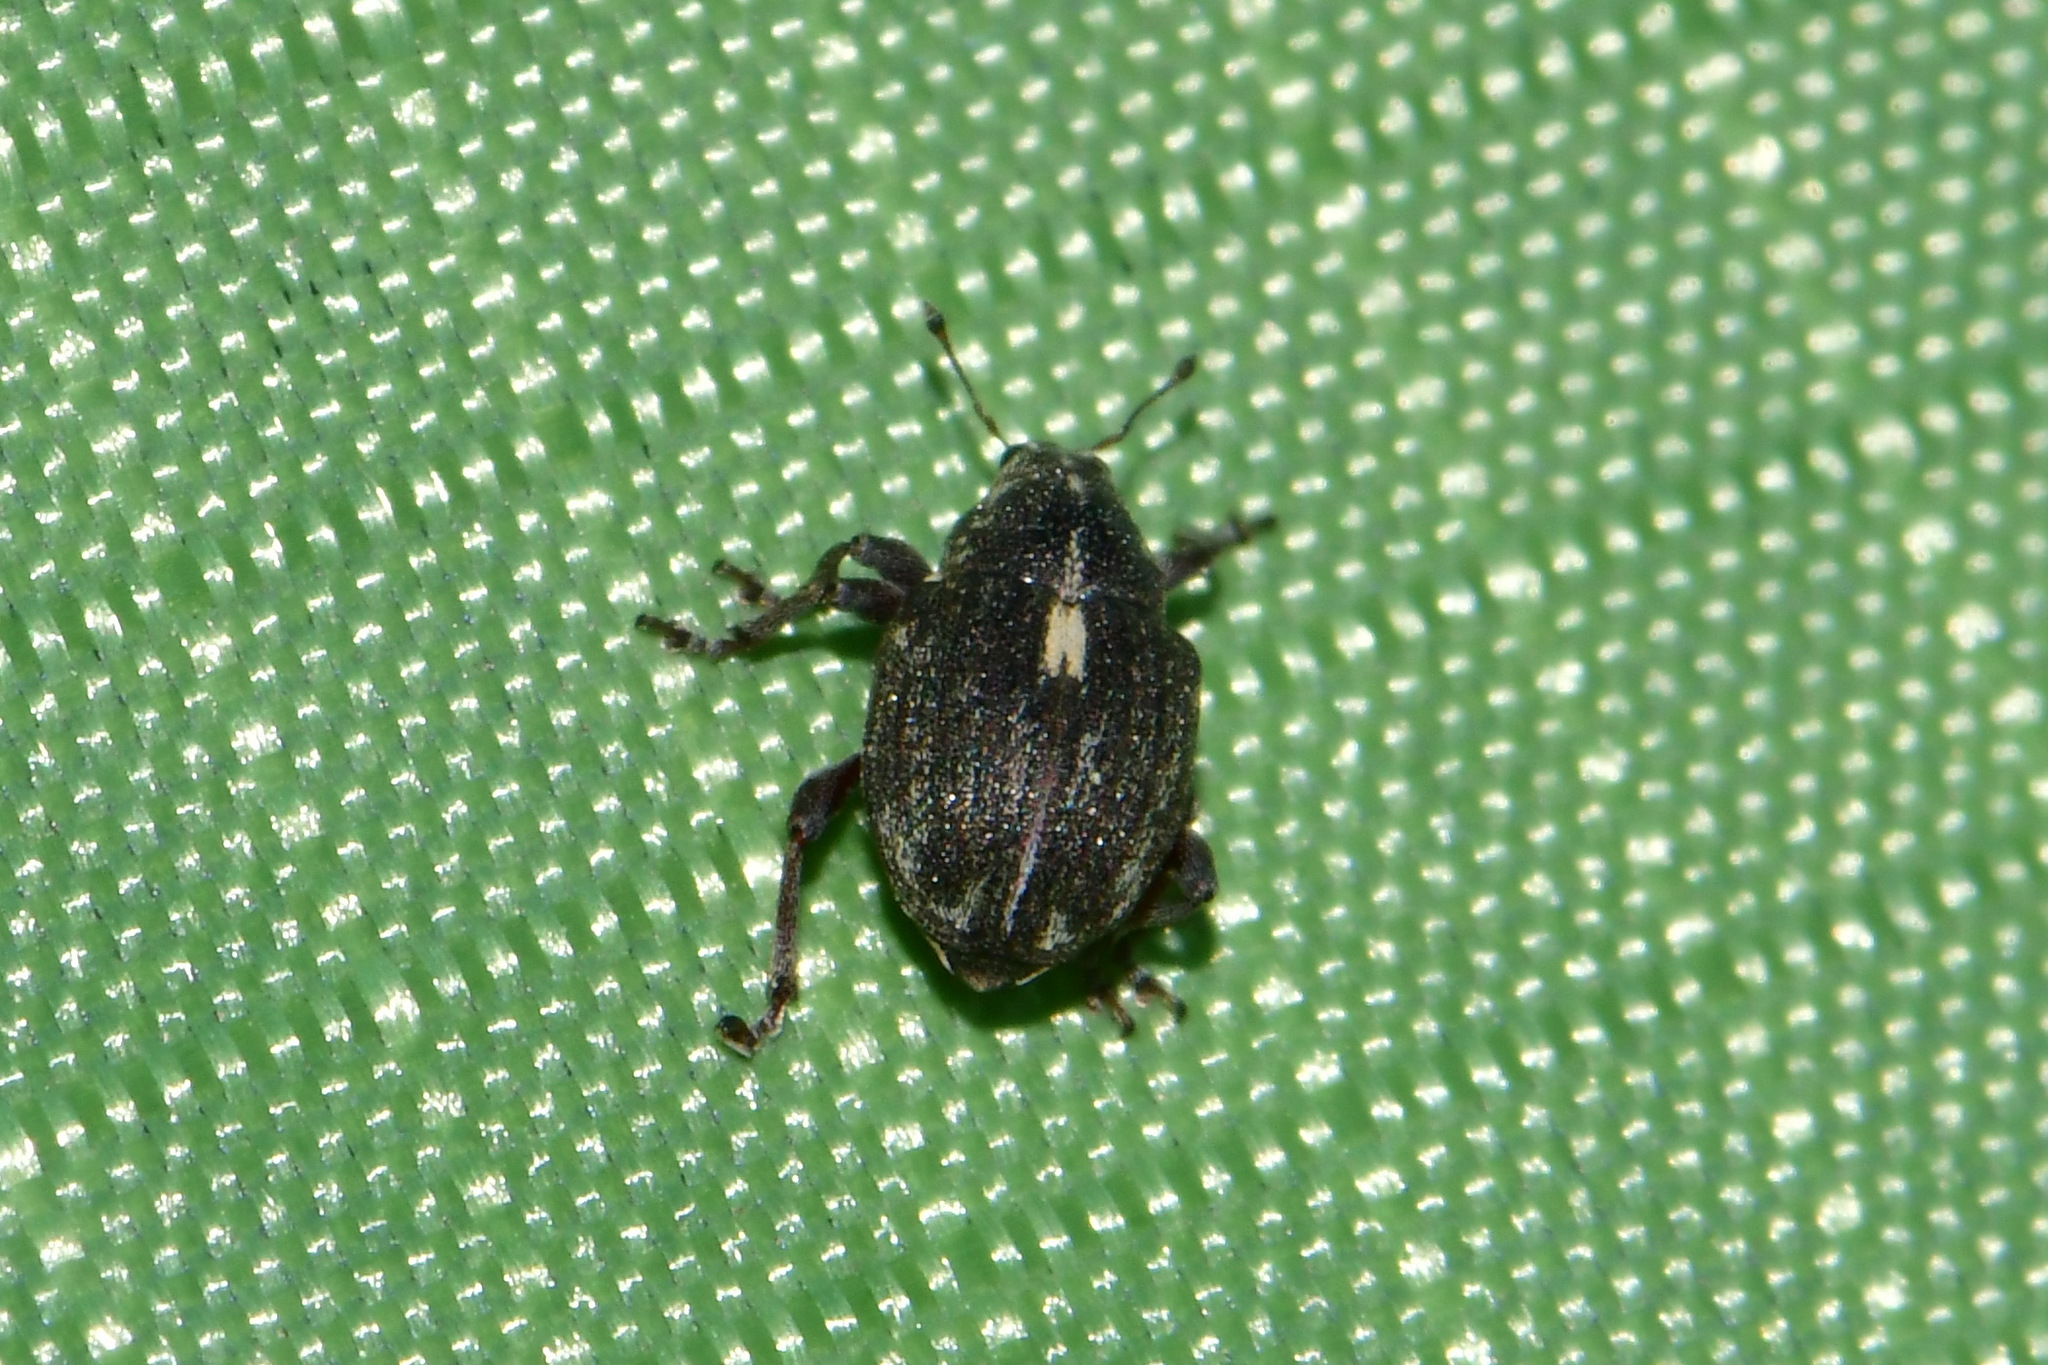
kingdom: Animalia
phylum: Arthropoda
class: Insecta
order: Coleoptera
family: Curculionidae
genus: Rhinoncus
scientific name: Rhinoncus leucostigma
